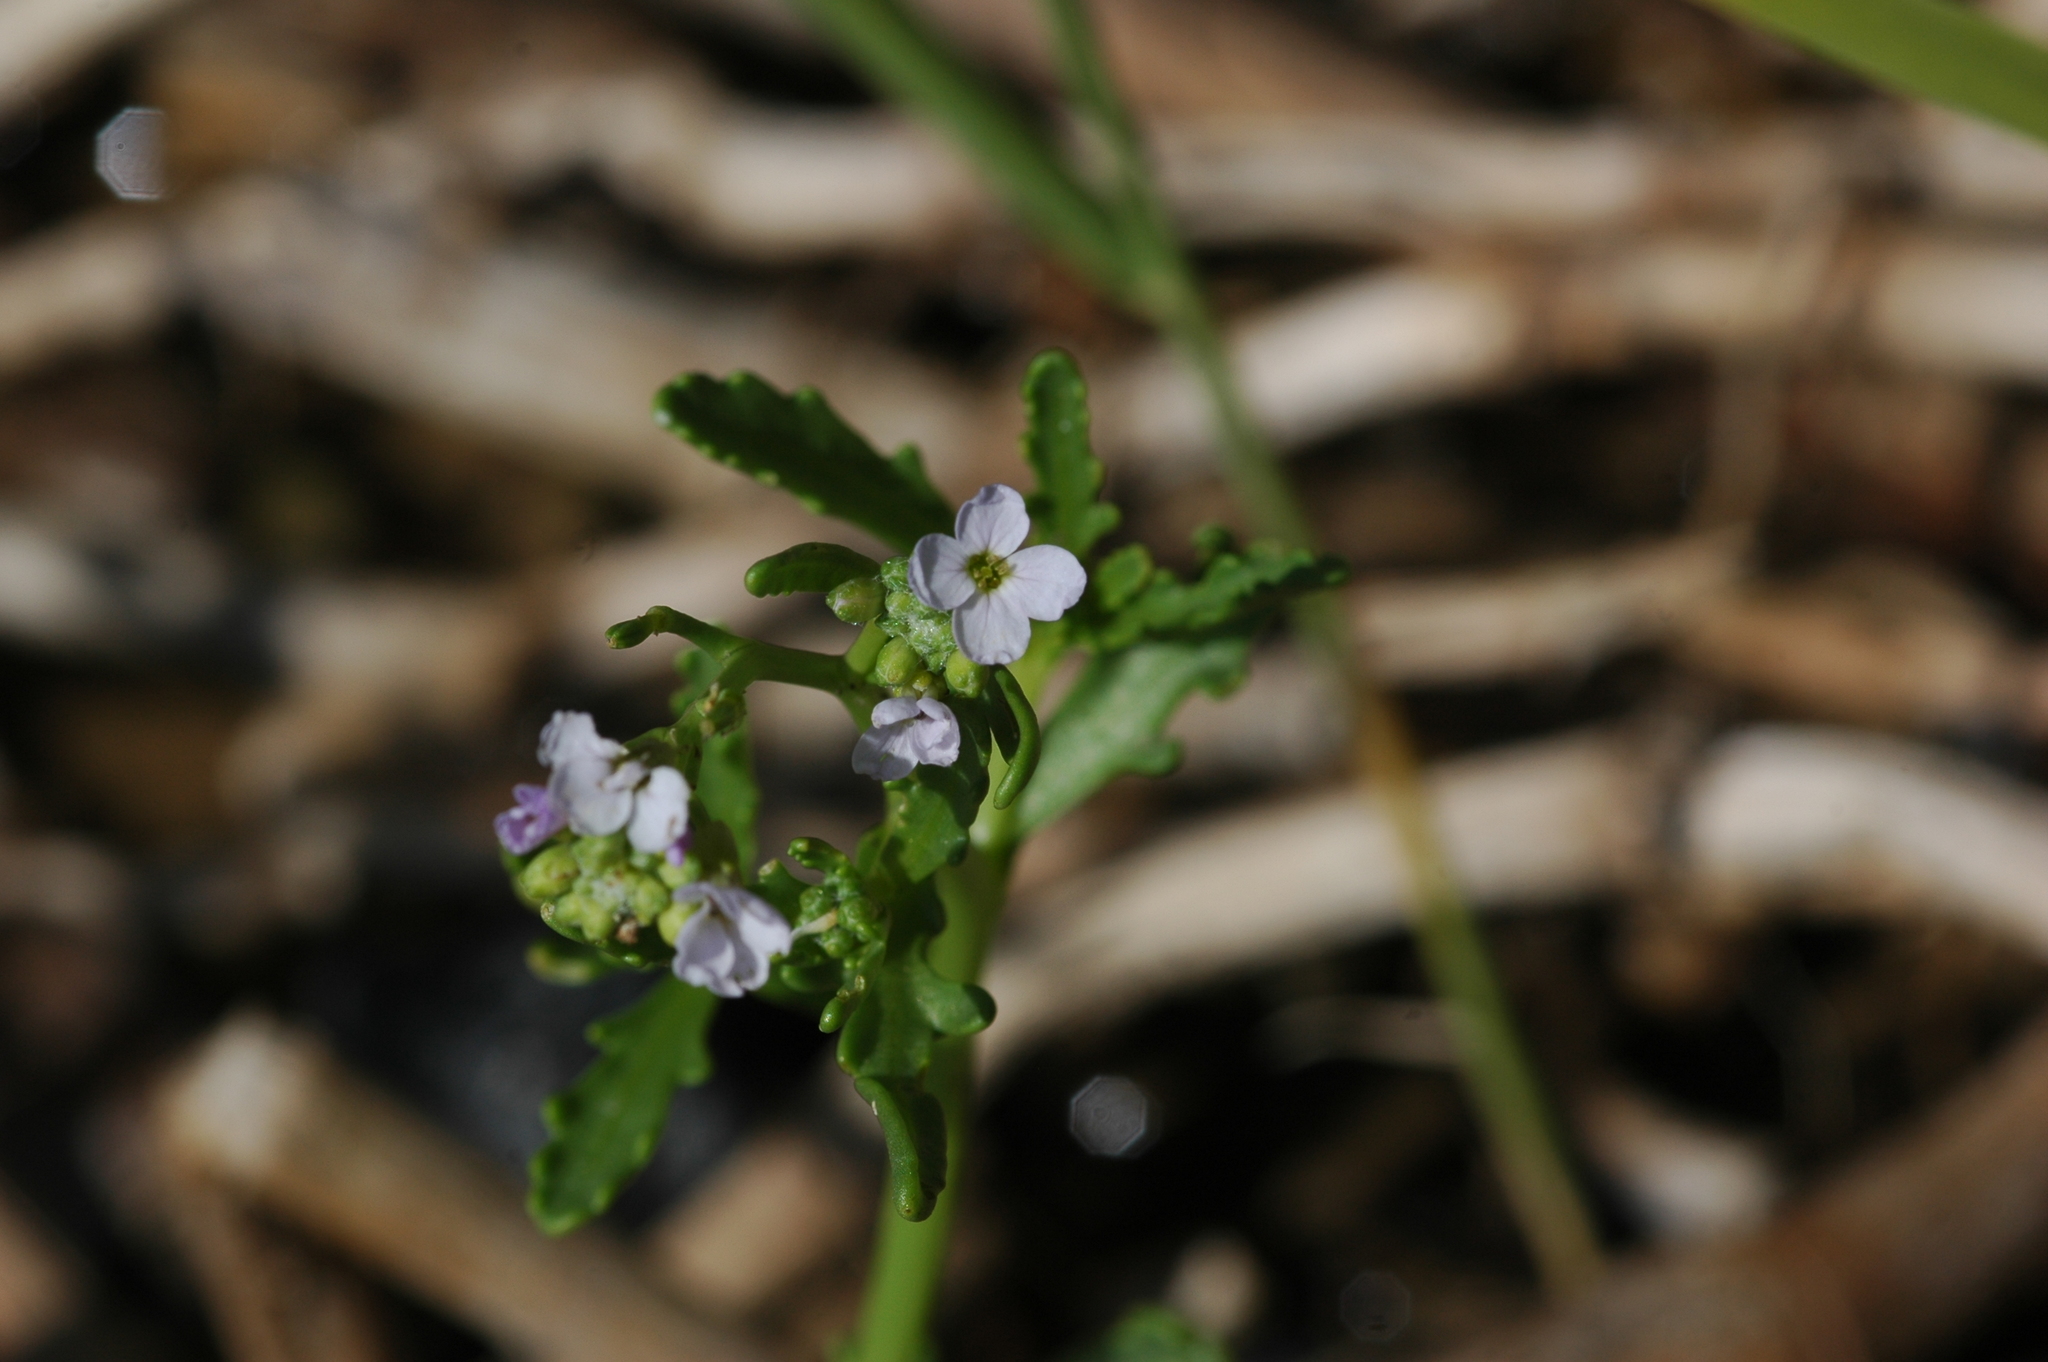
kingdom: Plantae
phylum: Tracheophyta
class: Magnoliopsida
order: Brassicales
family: Brassicaceae
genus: Cakile
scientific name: Cakile maritima
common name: Sea rocket
